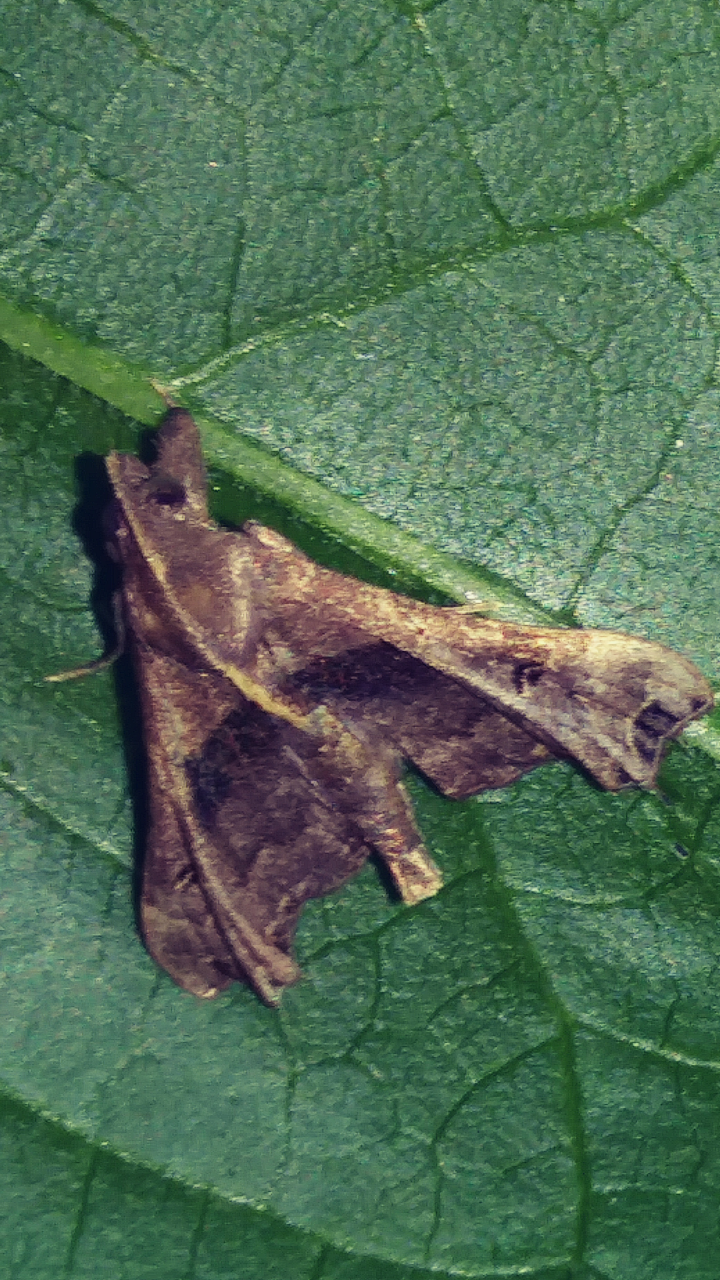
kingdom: Animalia
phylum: Arthropoda
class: Insecta
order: Lepidoptera
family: Erebidae
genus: Palthis
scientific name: Palthis asopialis
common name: Faint-spotted palthis moth
